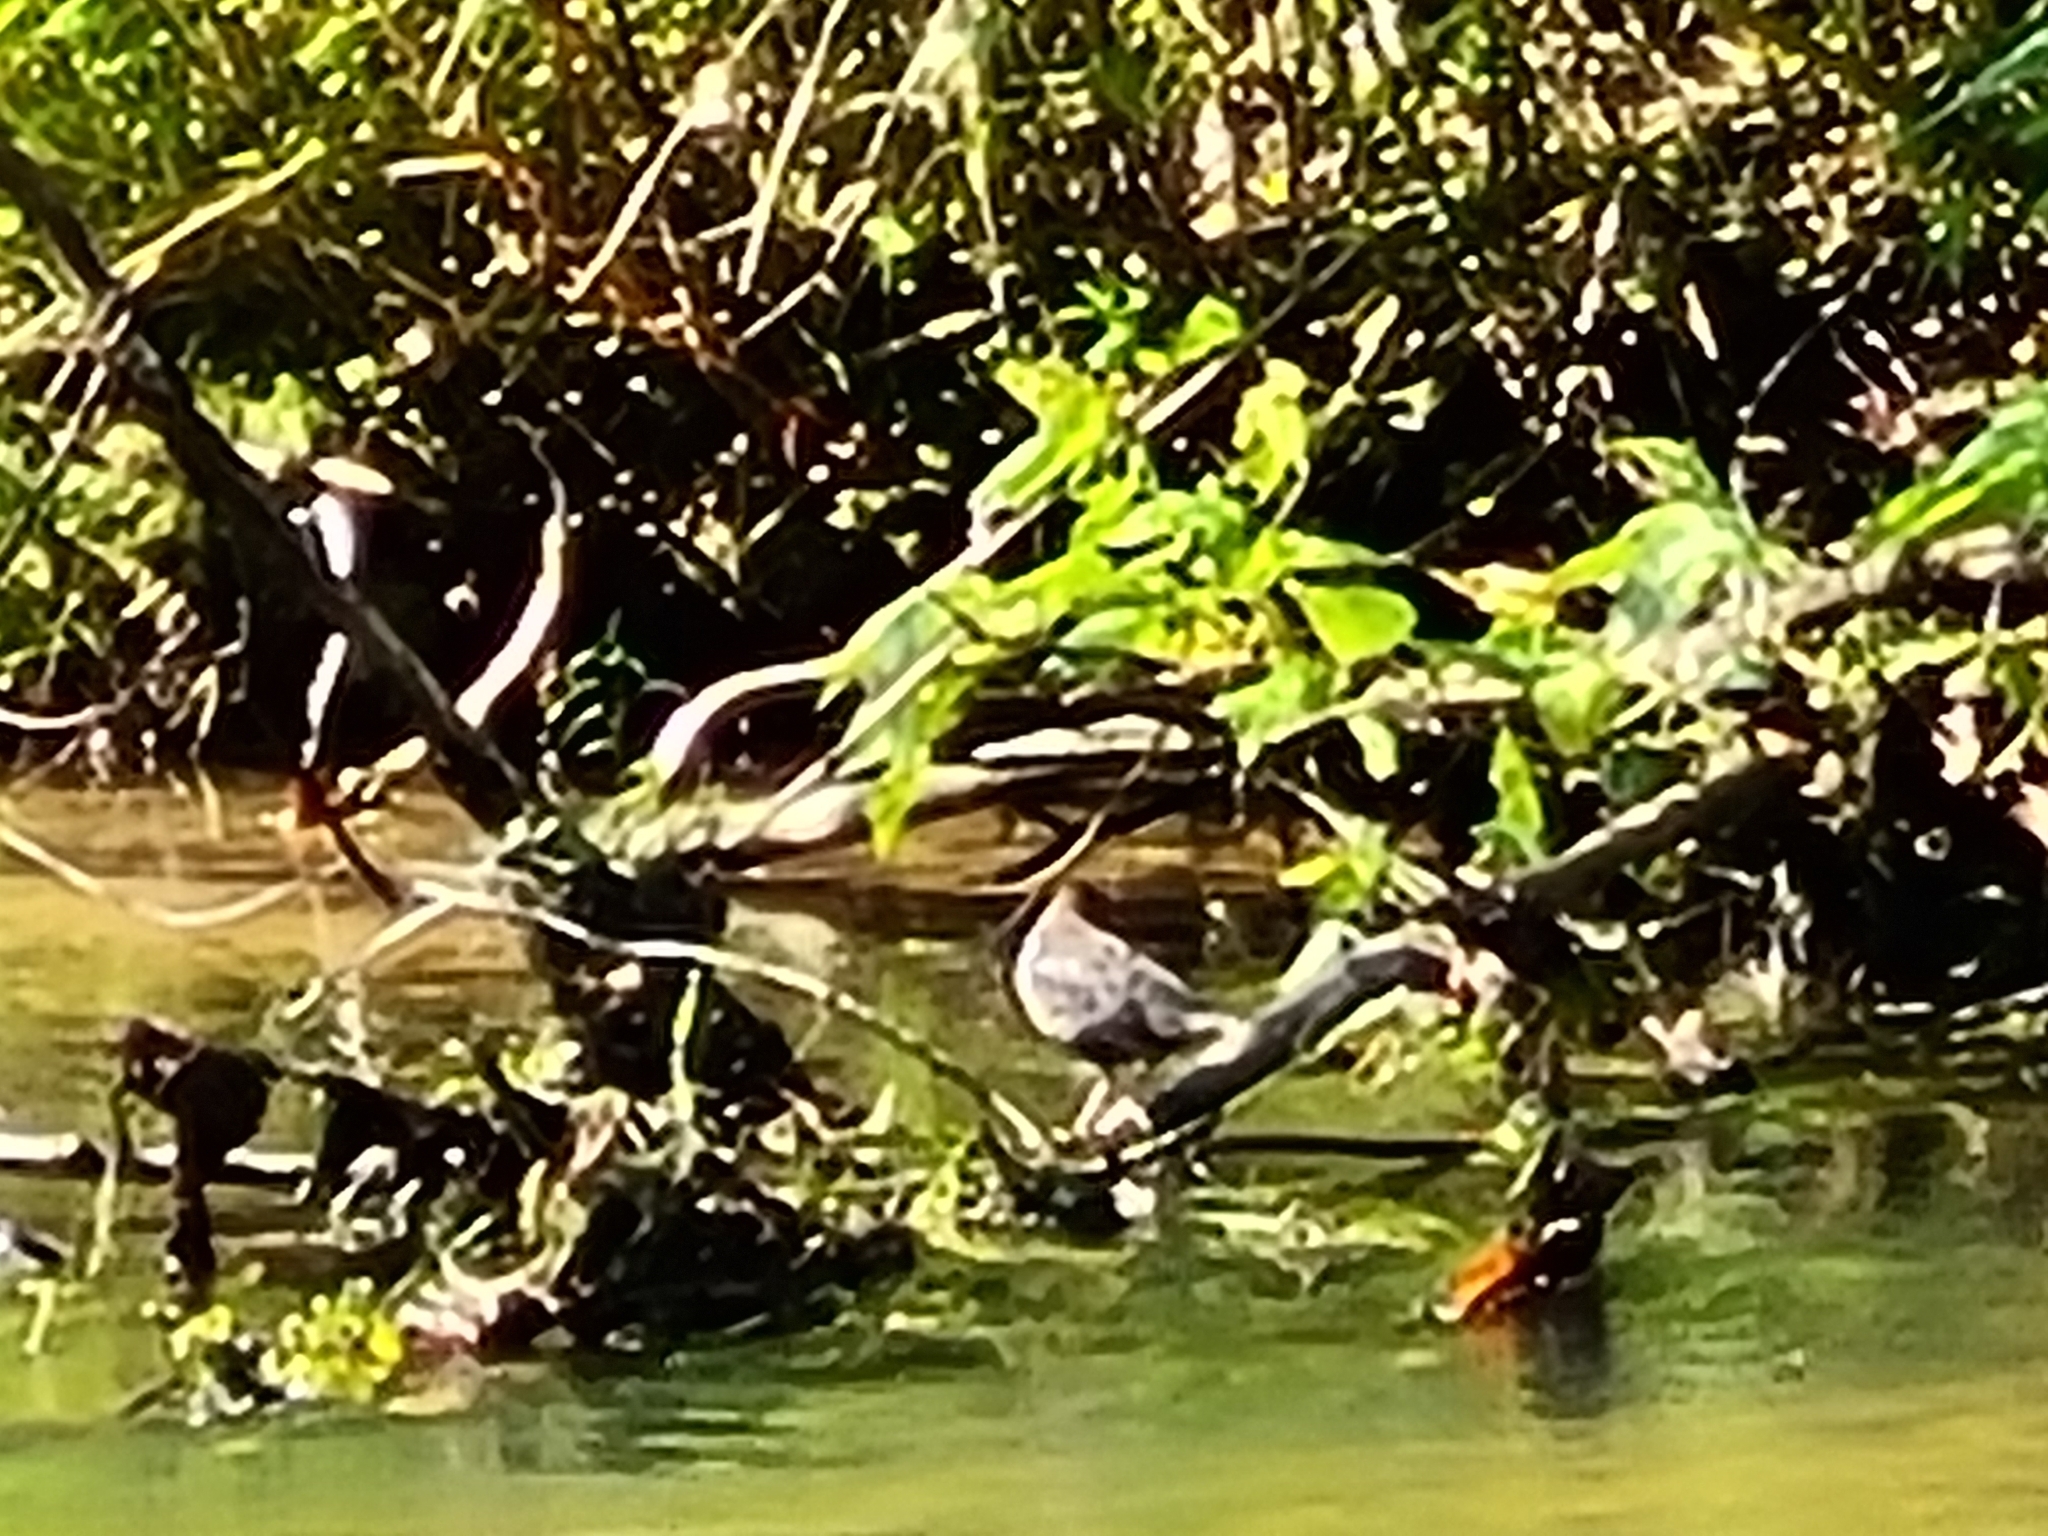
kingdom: Animalia
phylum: Chordata
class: Aves
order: Passeriformes
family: Cinclidae
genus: Cinclus
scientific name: Cinclus cinclus
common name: White-throated dipper
